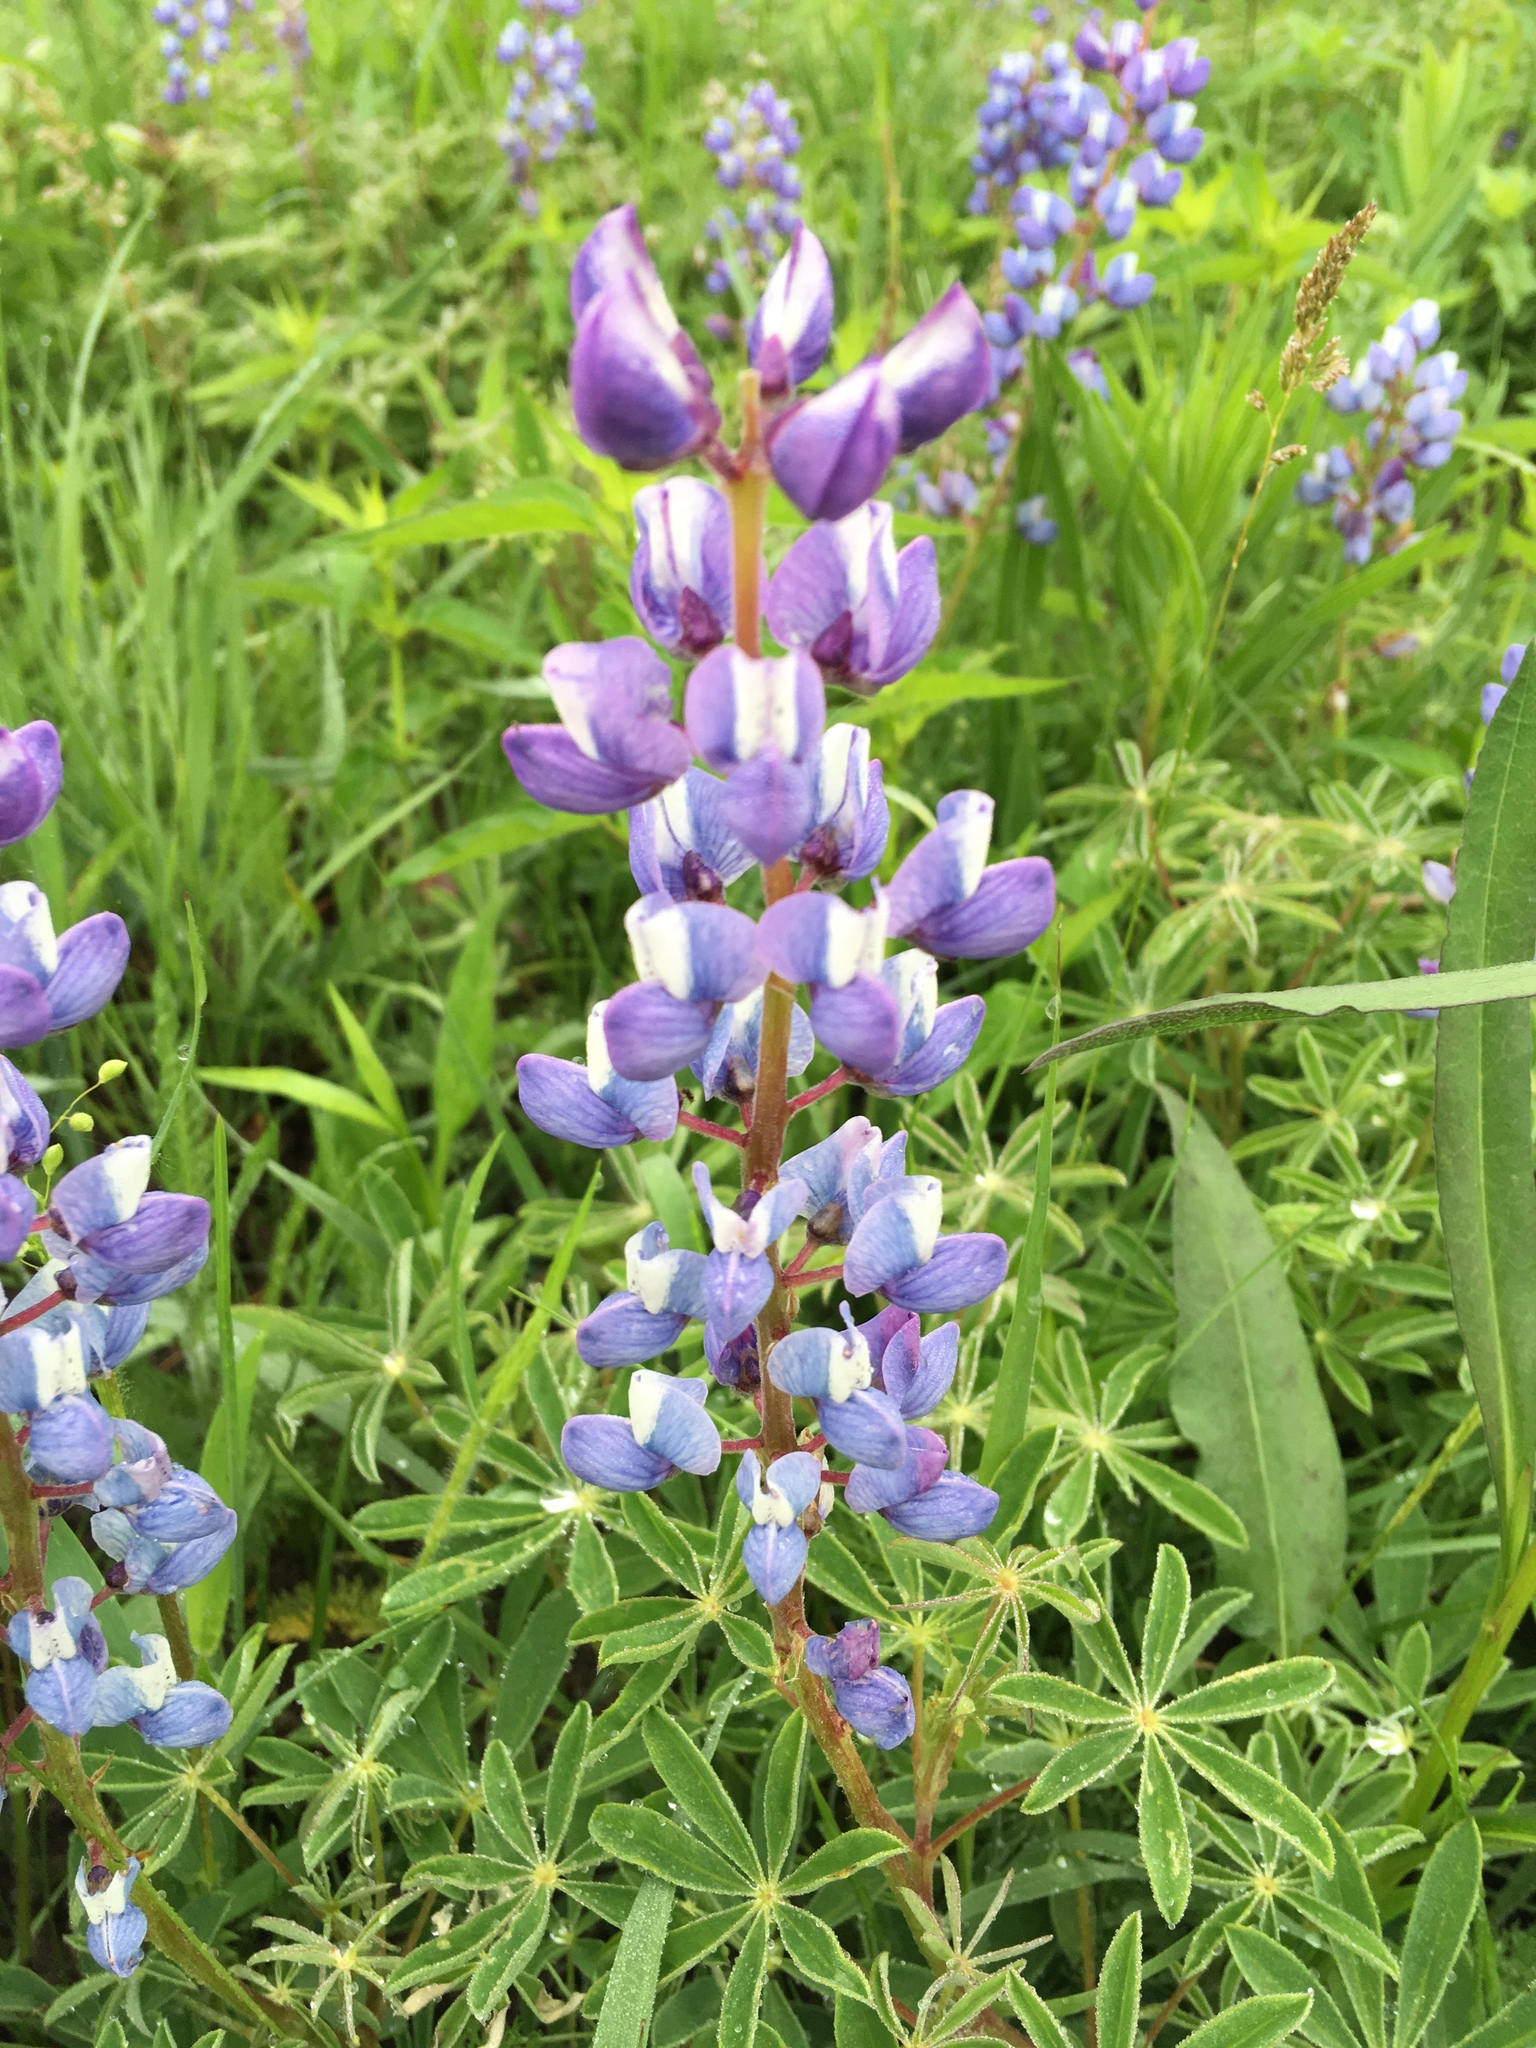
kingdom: Plantae
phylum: Tracheophyta
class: Magnoliopsida
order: Fabales
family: Fabaceae
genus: Lupinus
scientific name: Lupinus perennis
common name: Sundial lupine
